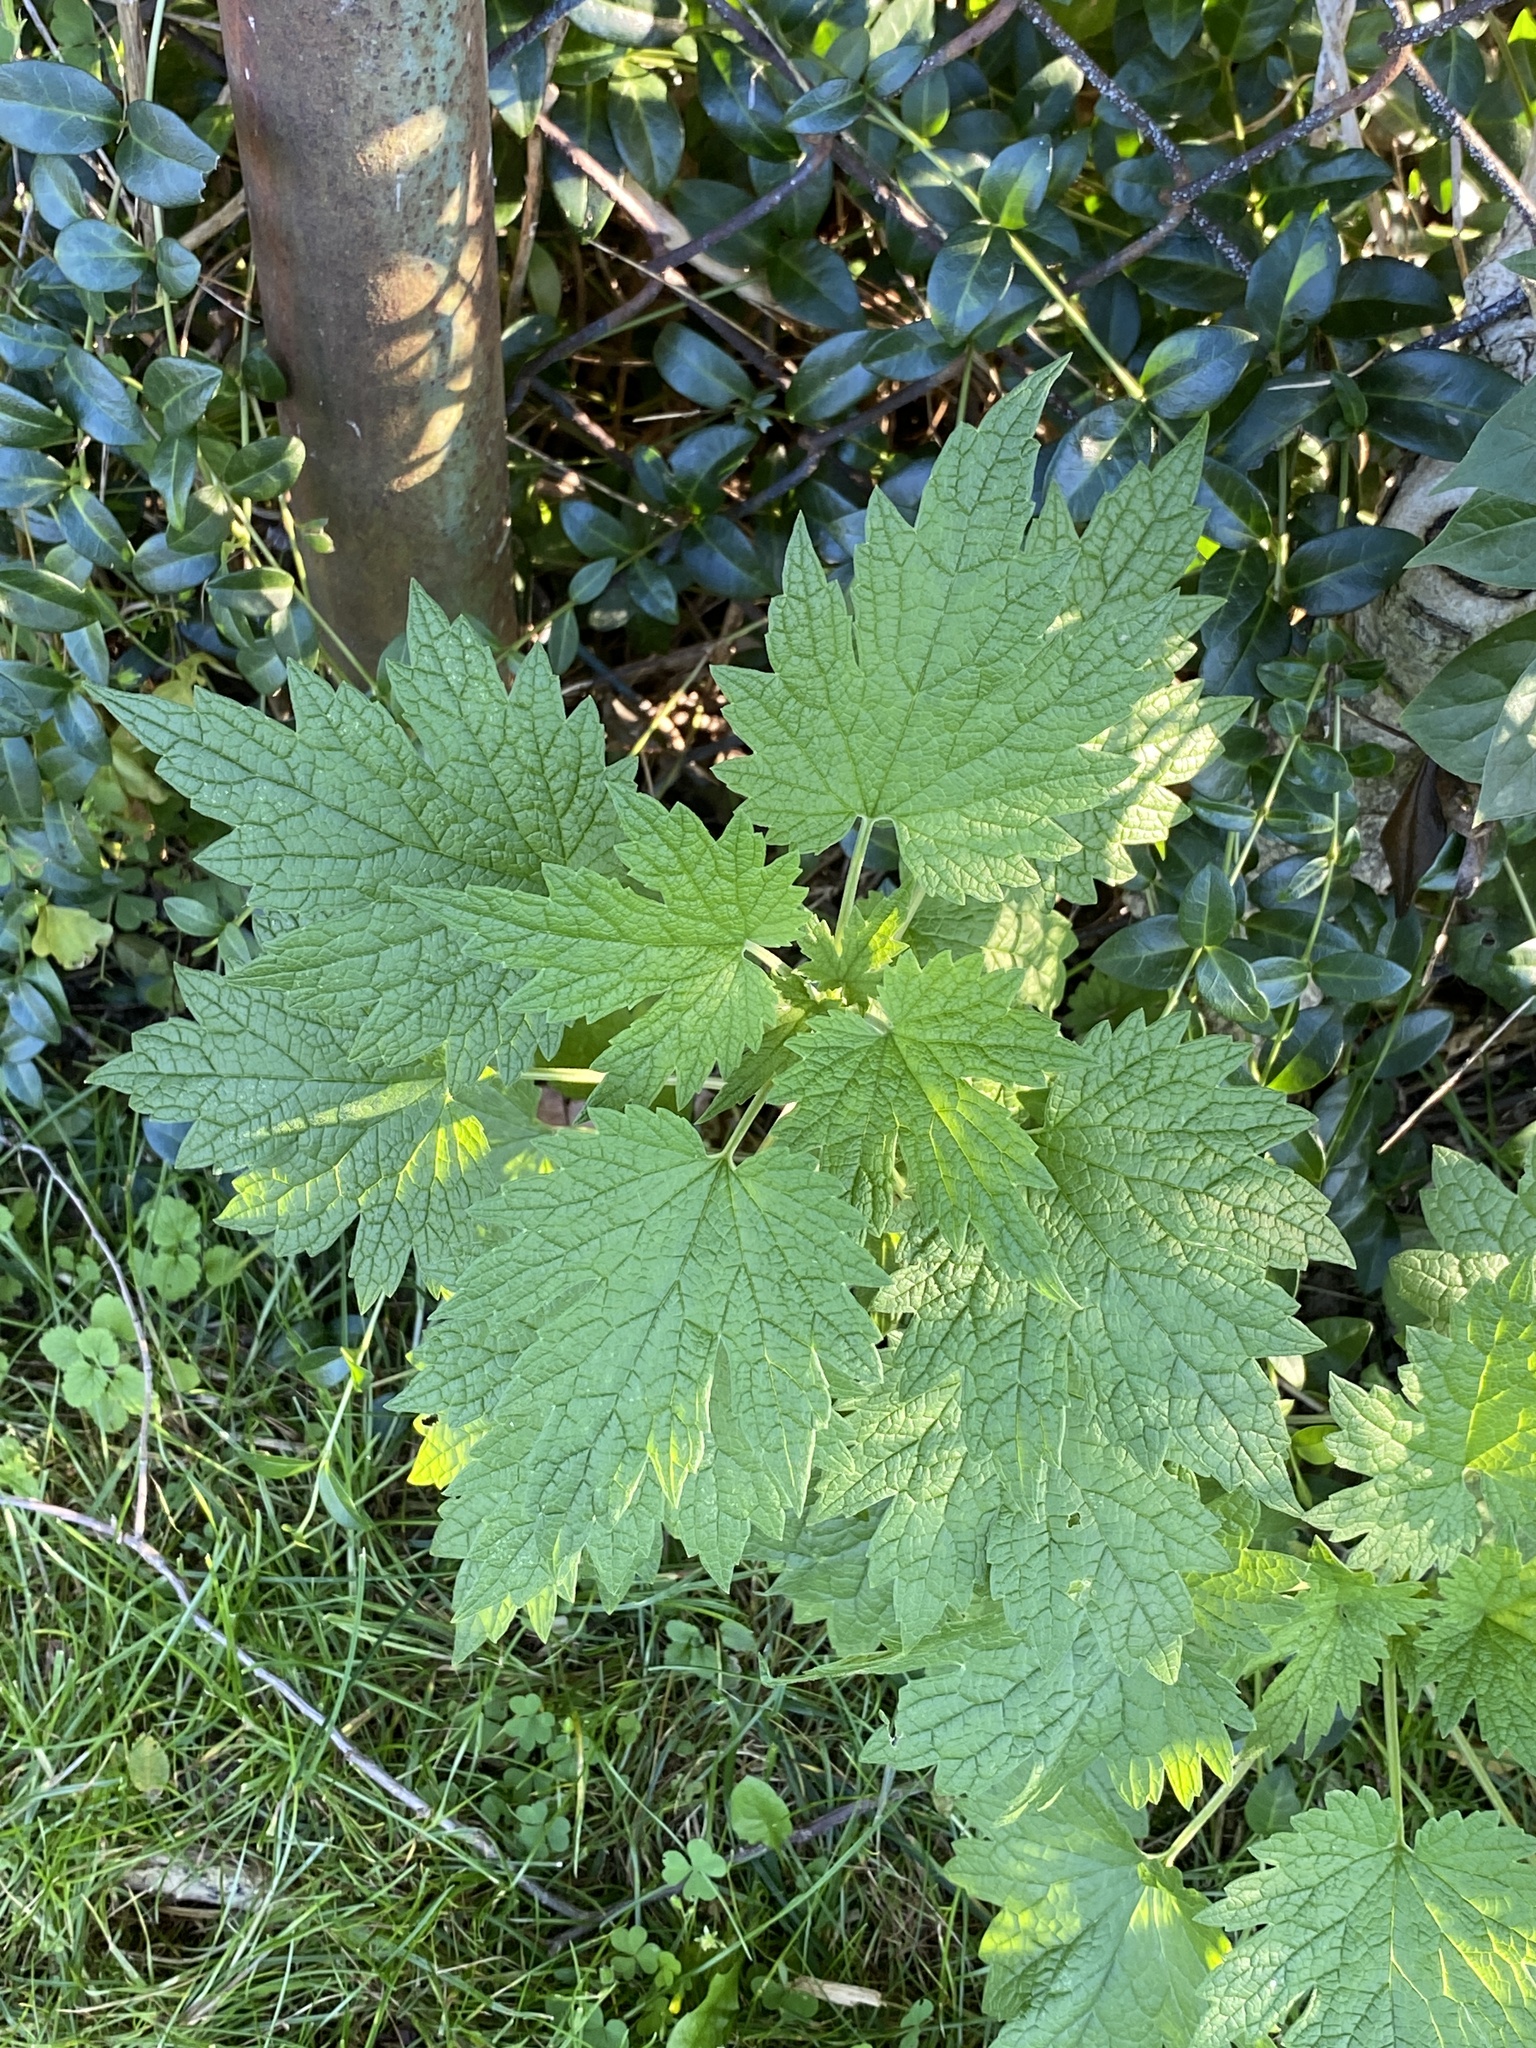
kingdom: Plantae
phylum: Tracheophyta
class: Magnoliopsida
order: Lamiales
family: Lamiaceae
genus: Leonurus
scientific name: Leonurus cardiaca
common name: Motherwort
